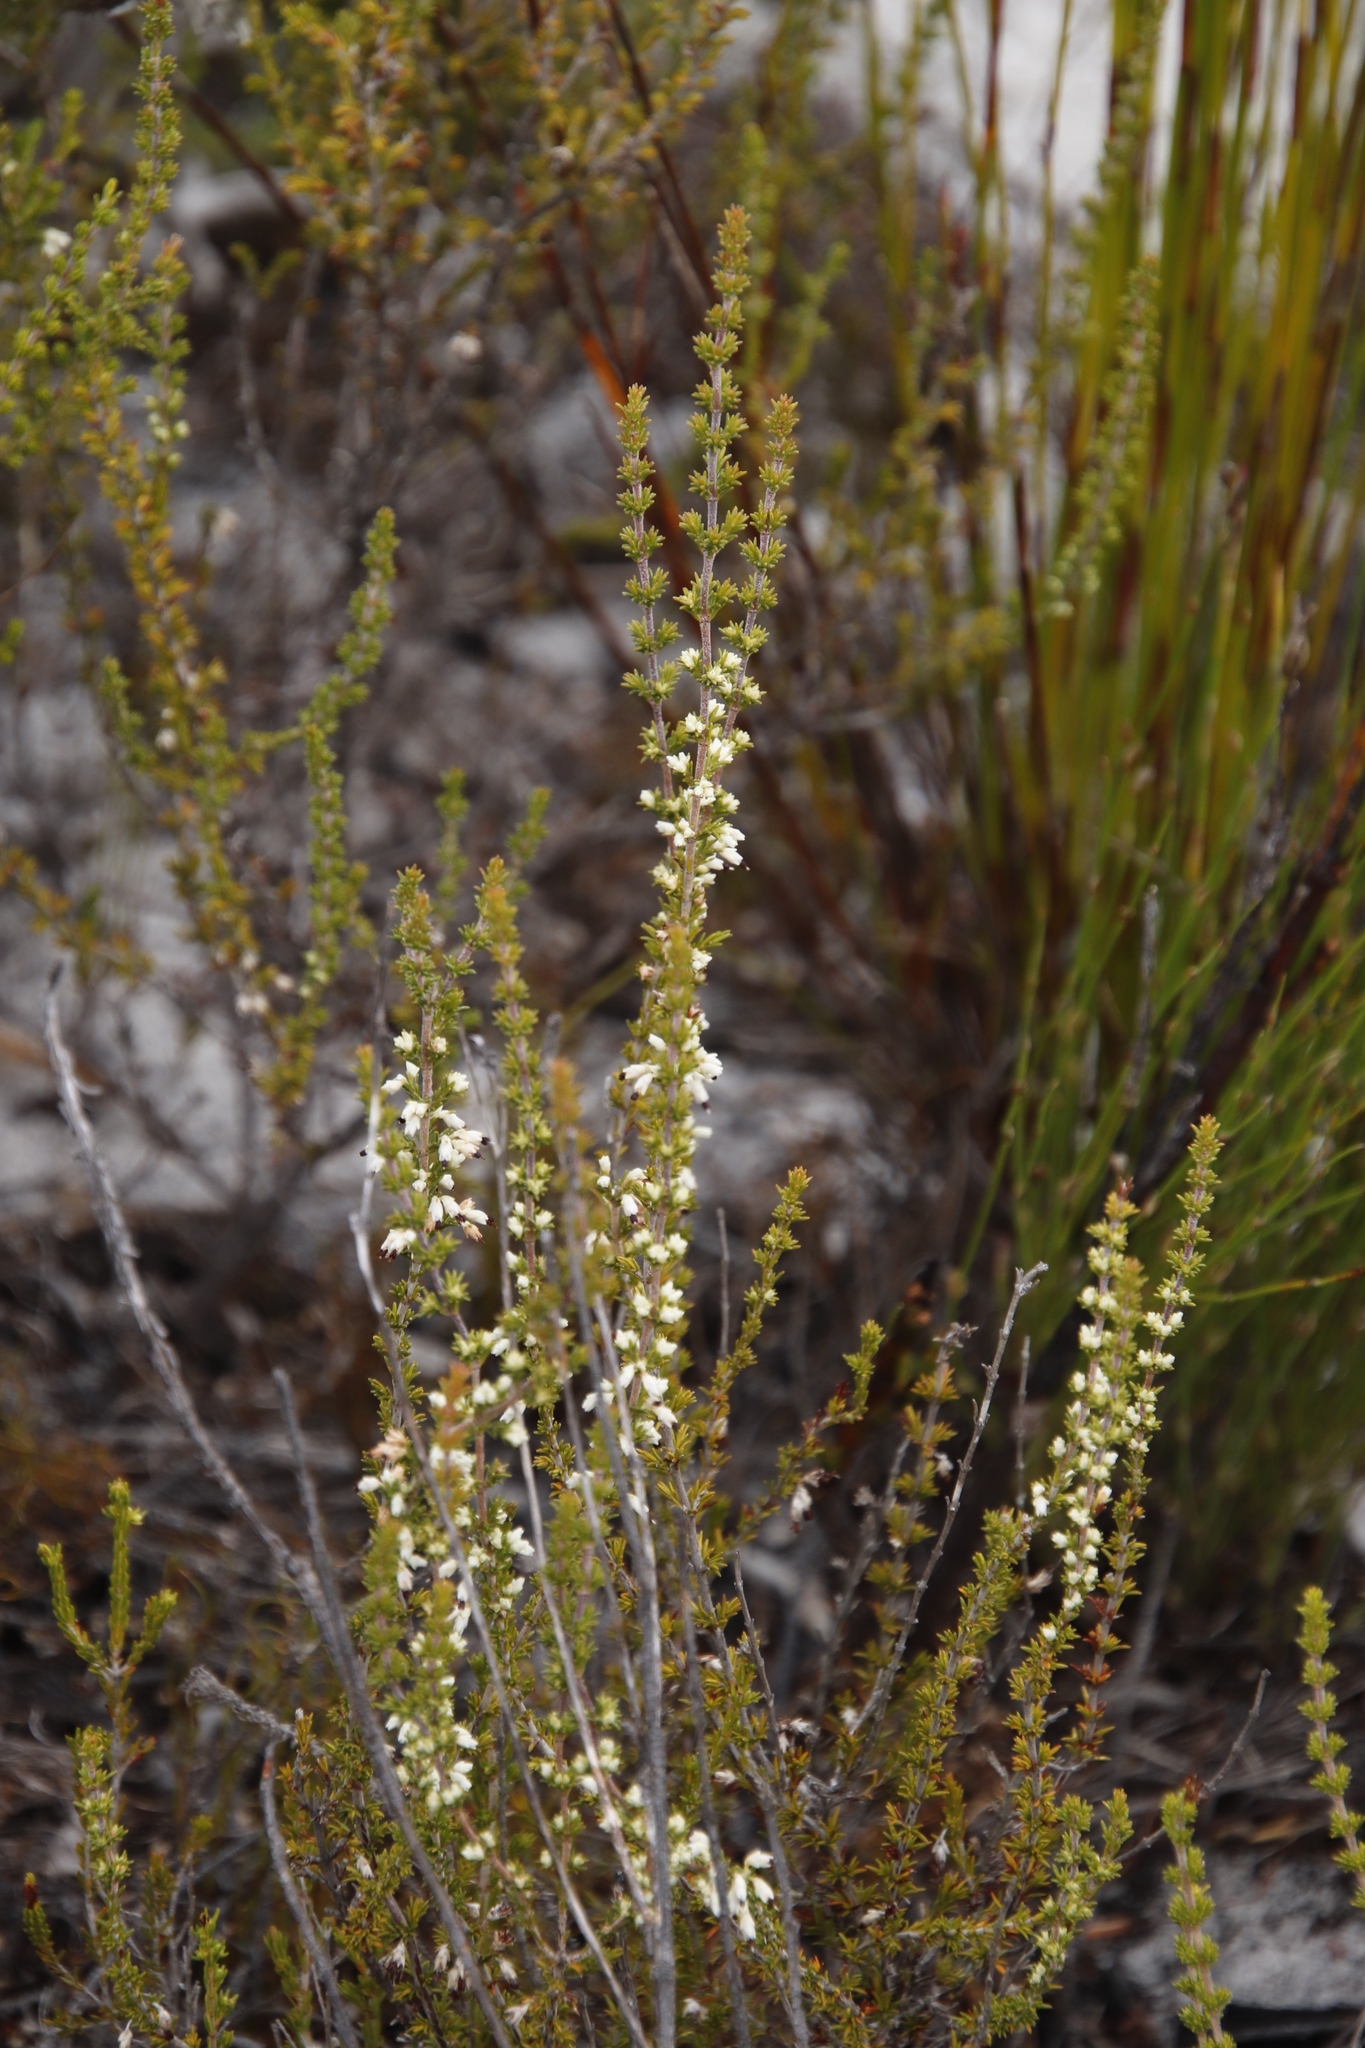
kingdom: Plantae
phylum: Tracheophyta
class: Magnoliopsida
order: Ericales
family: Ericaceae
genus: Erica
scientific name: Erica imbricata
